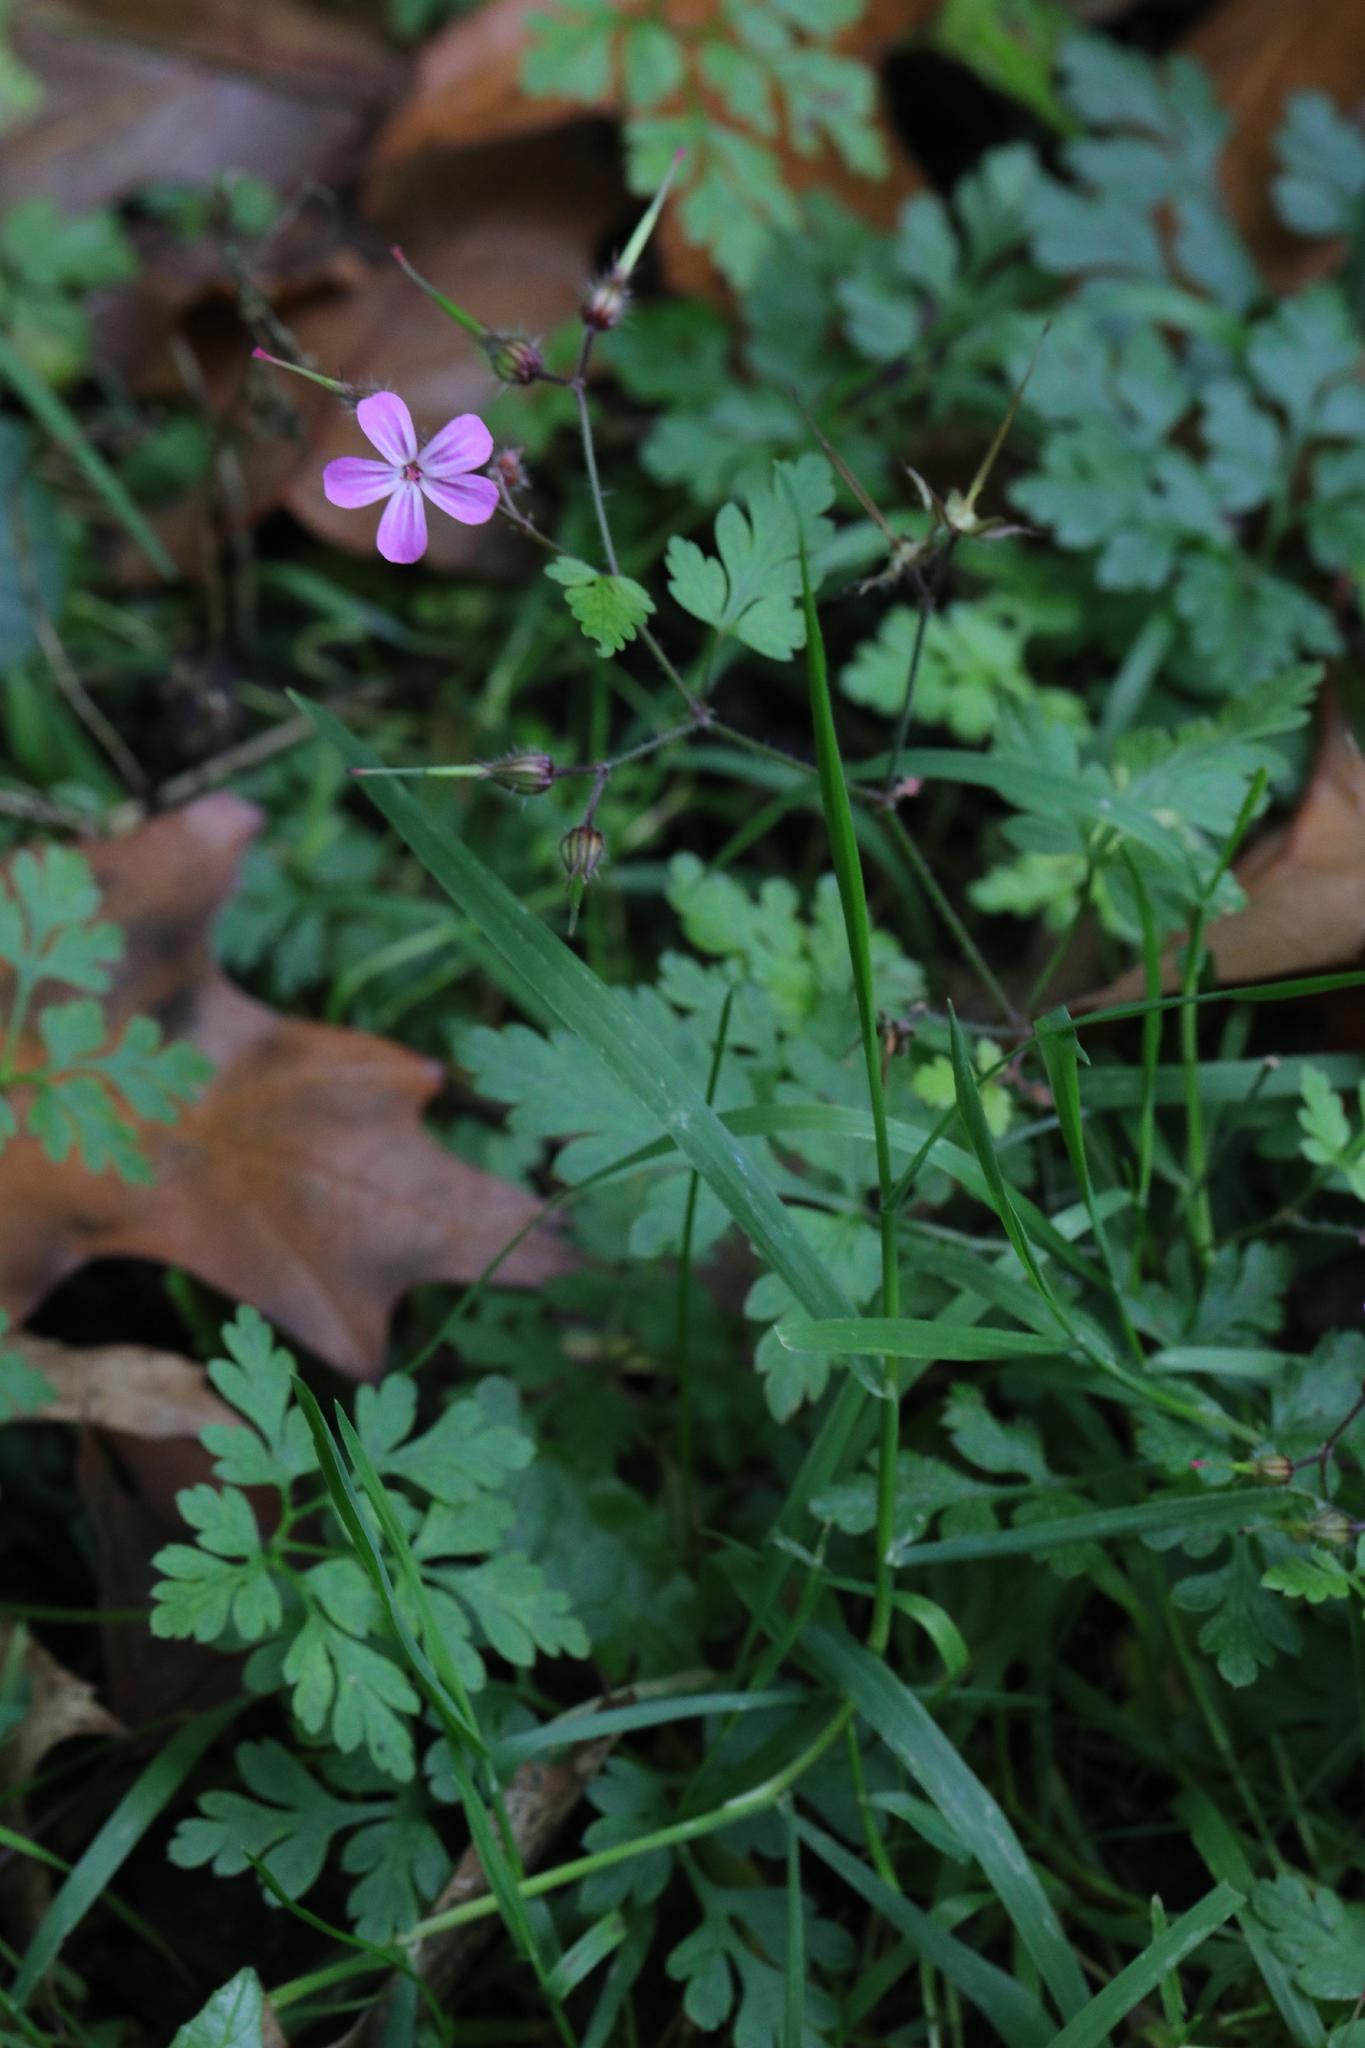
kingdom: Plantae
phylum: Tracheophyta
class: Magnoliopsida
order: Geraniales
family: Geraniaceae
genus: Geranium
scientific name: Geranium robertianum
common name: Herb-robert
